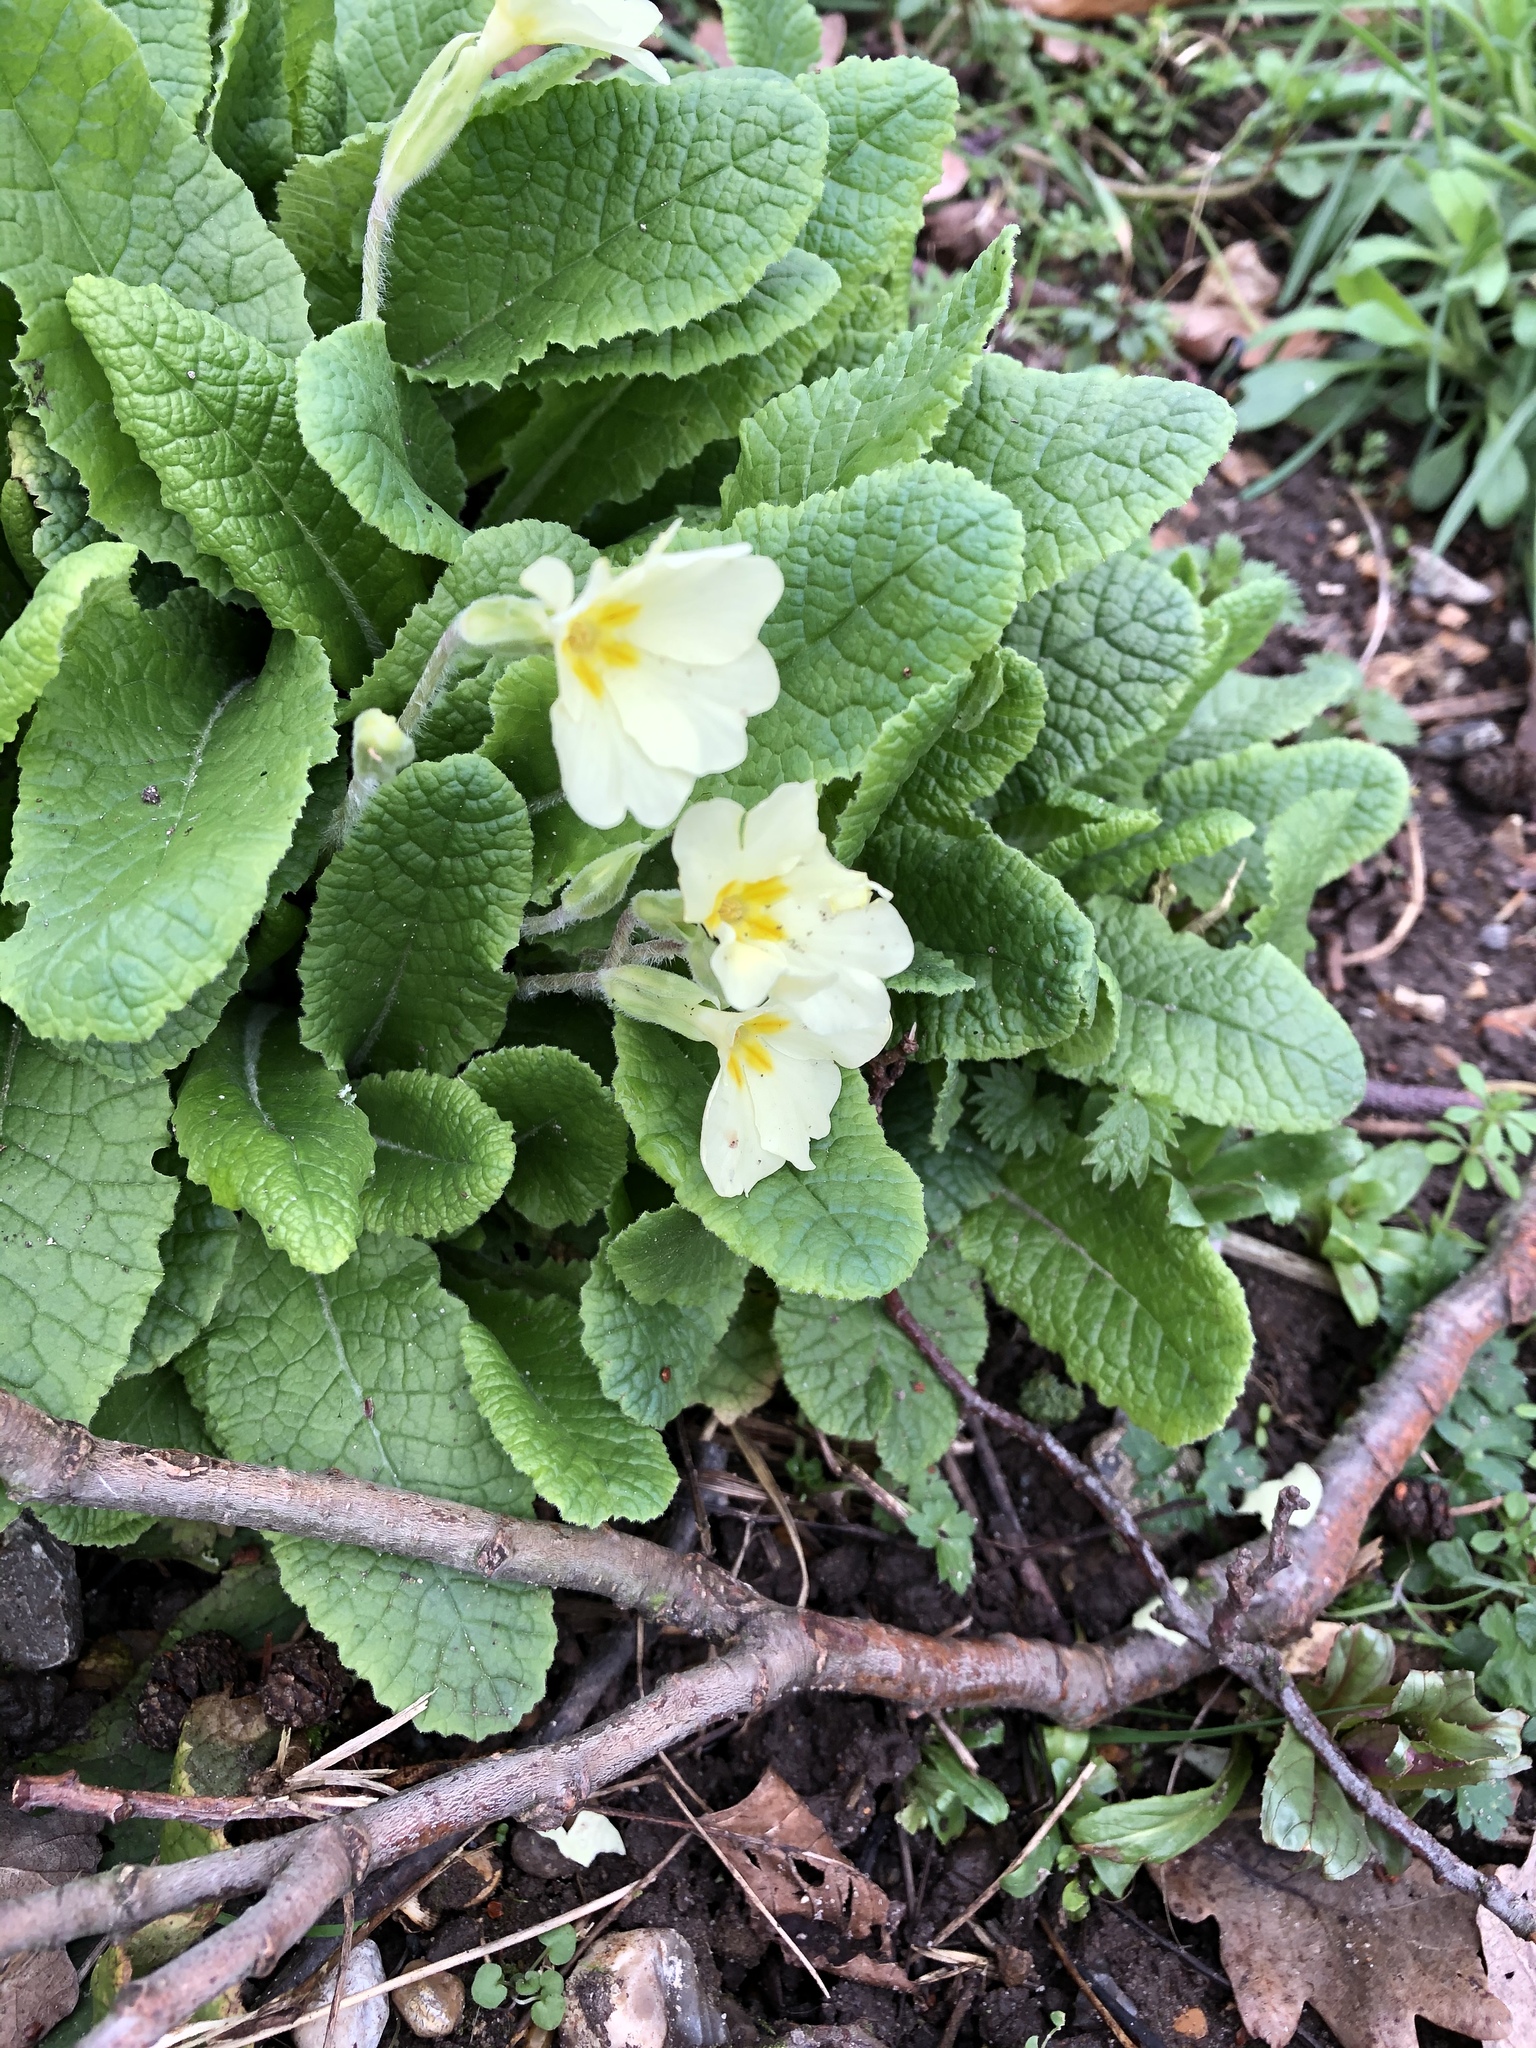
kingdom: Plantae
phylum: Tracheophyta
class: Magnoliopsida
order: Ericales
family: Primulaceae
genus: Primula
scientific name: Primula vulgaris
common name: Primrose
